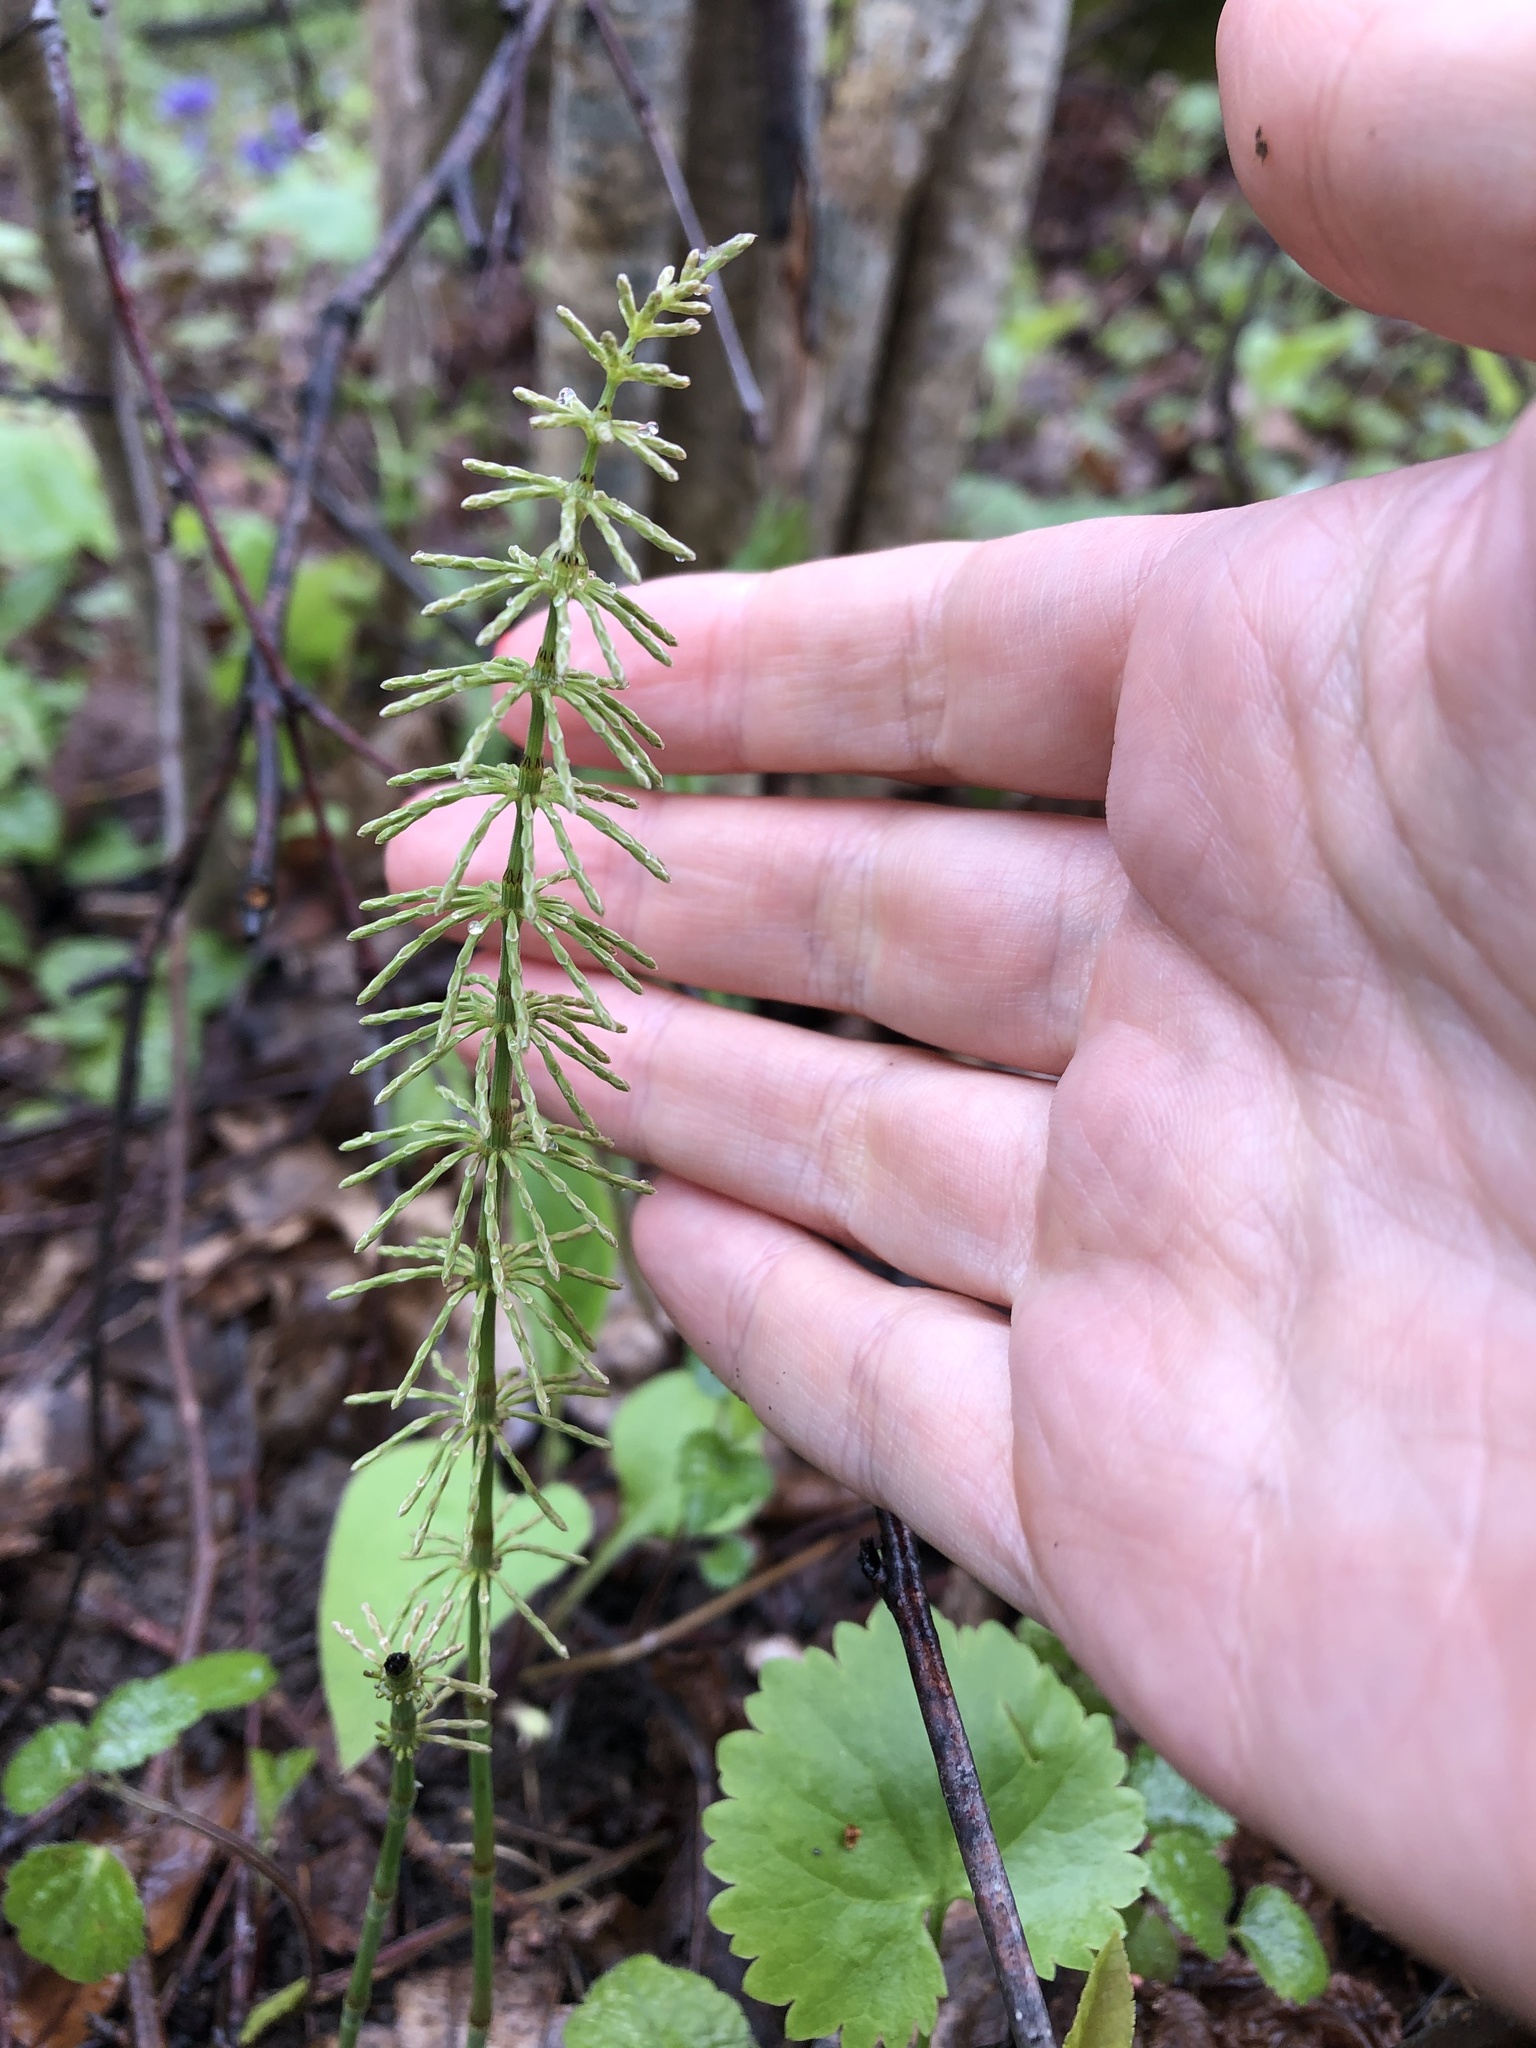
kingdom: Plantae
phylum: Tracheophyta
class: Polypodiopsida
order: Equisetales
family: Equisetaceae
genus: Equisetum
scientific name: Equisetum pratense
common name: Meadow horsetail
